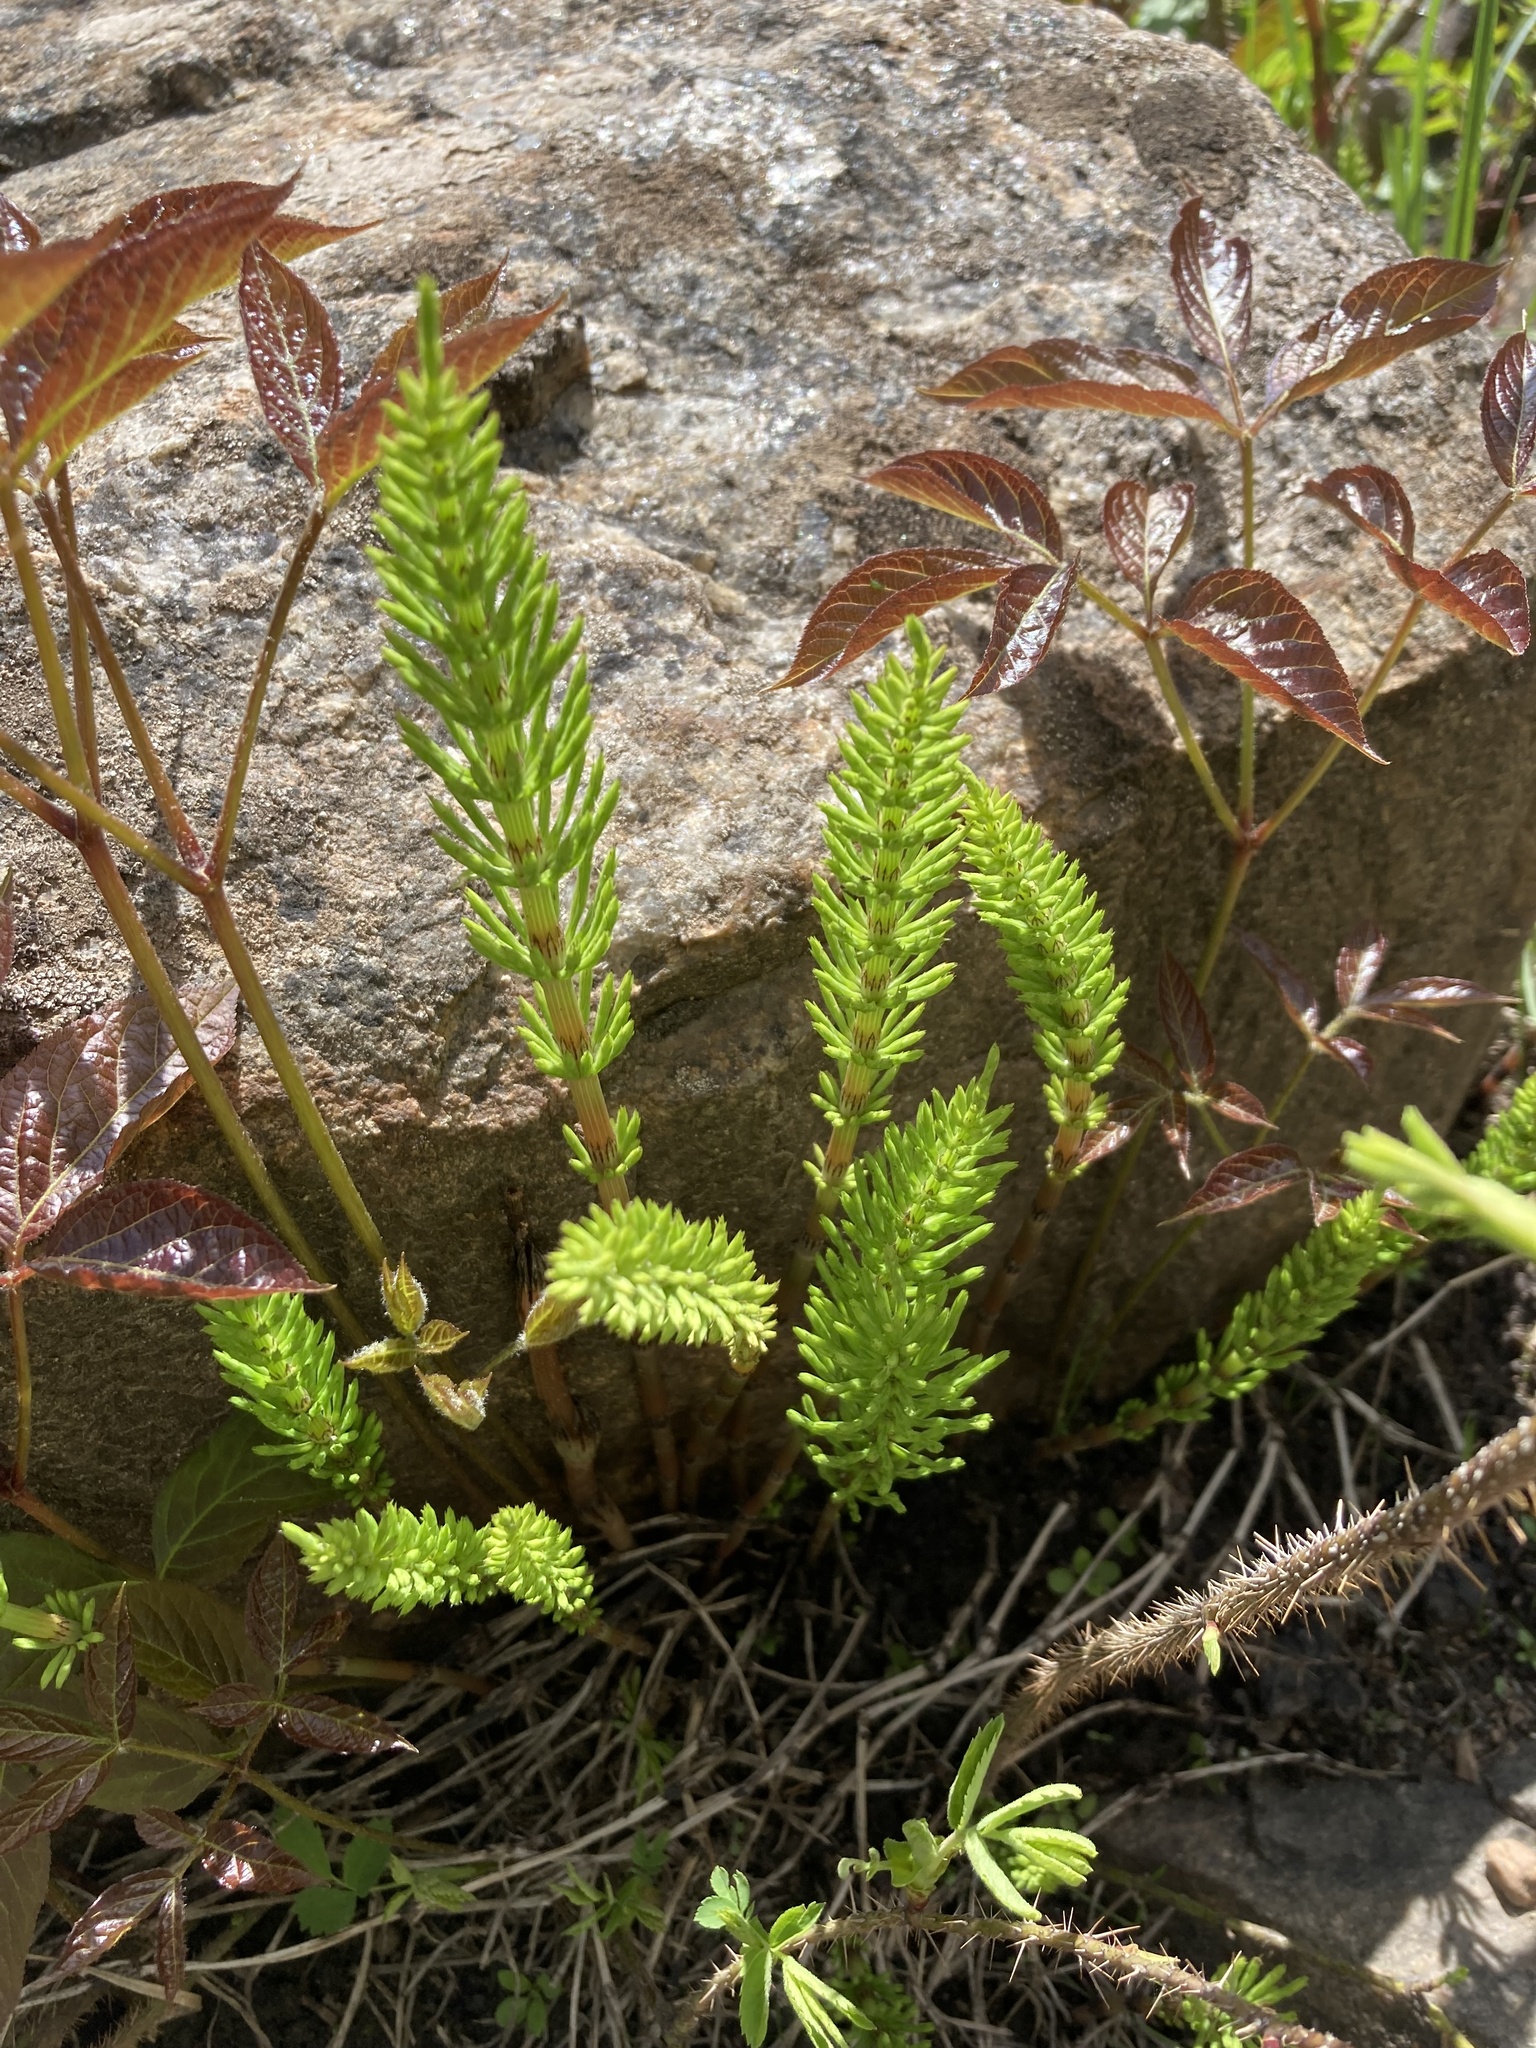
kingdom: Plantae
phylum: Tracheophyta
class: Polypodiopsida
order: Equisetales
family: Equisetaceae
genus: Equisetum
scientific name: Equisetum arvense
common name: Field horsetail
